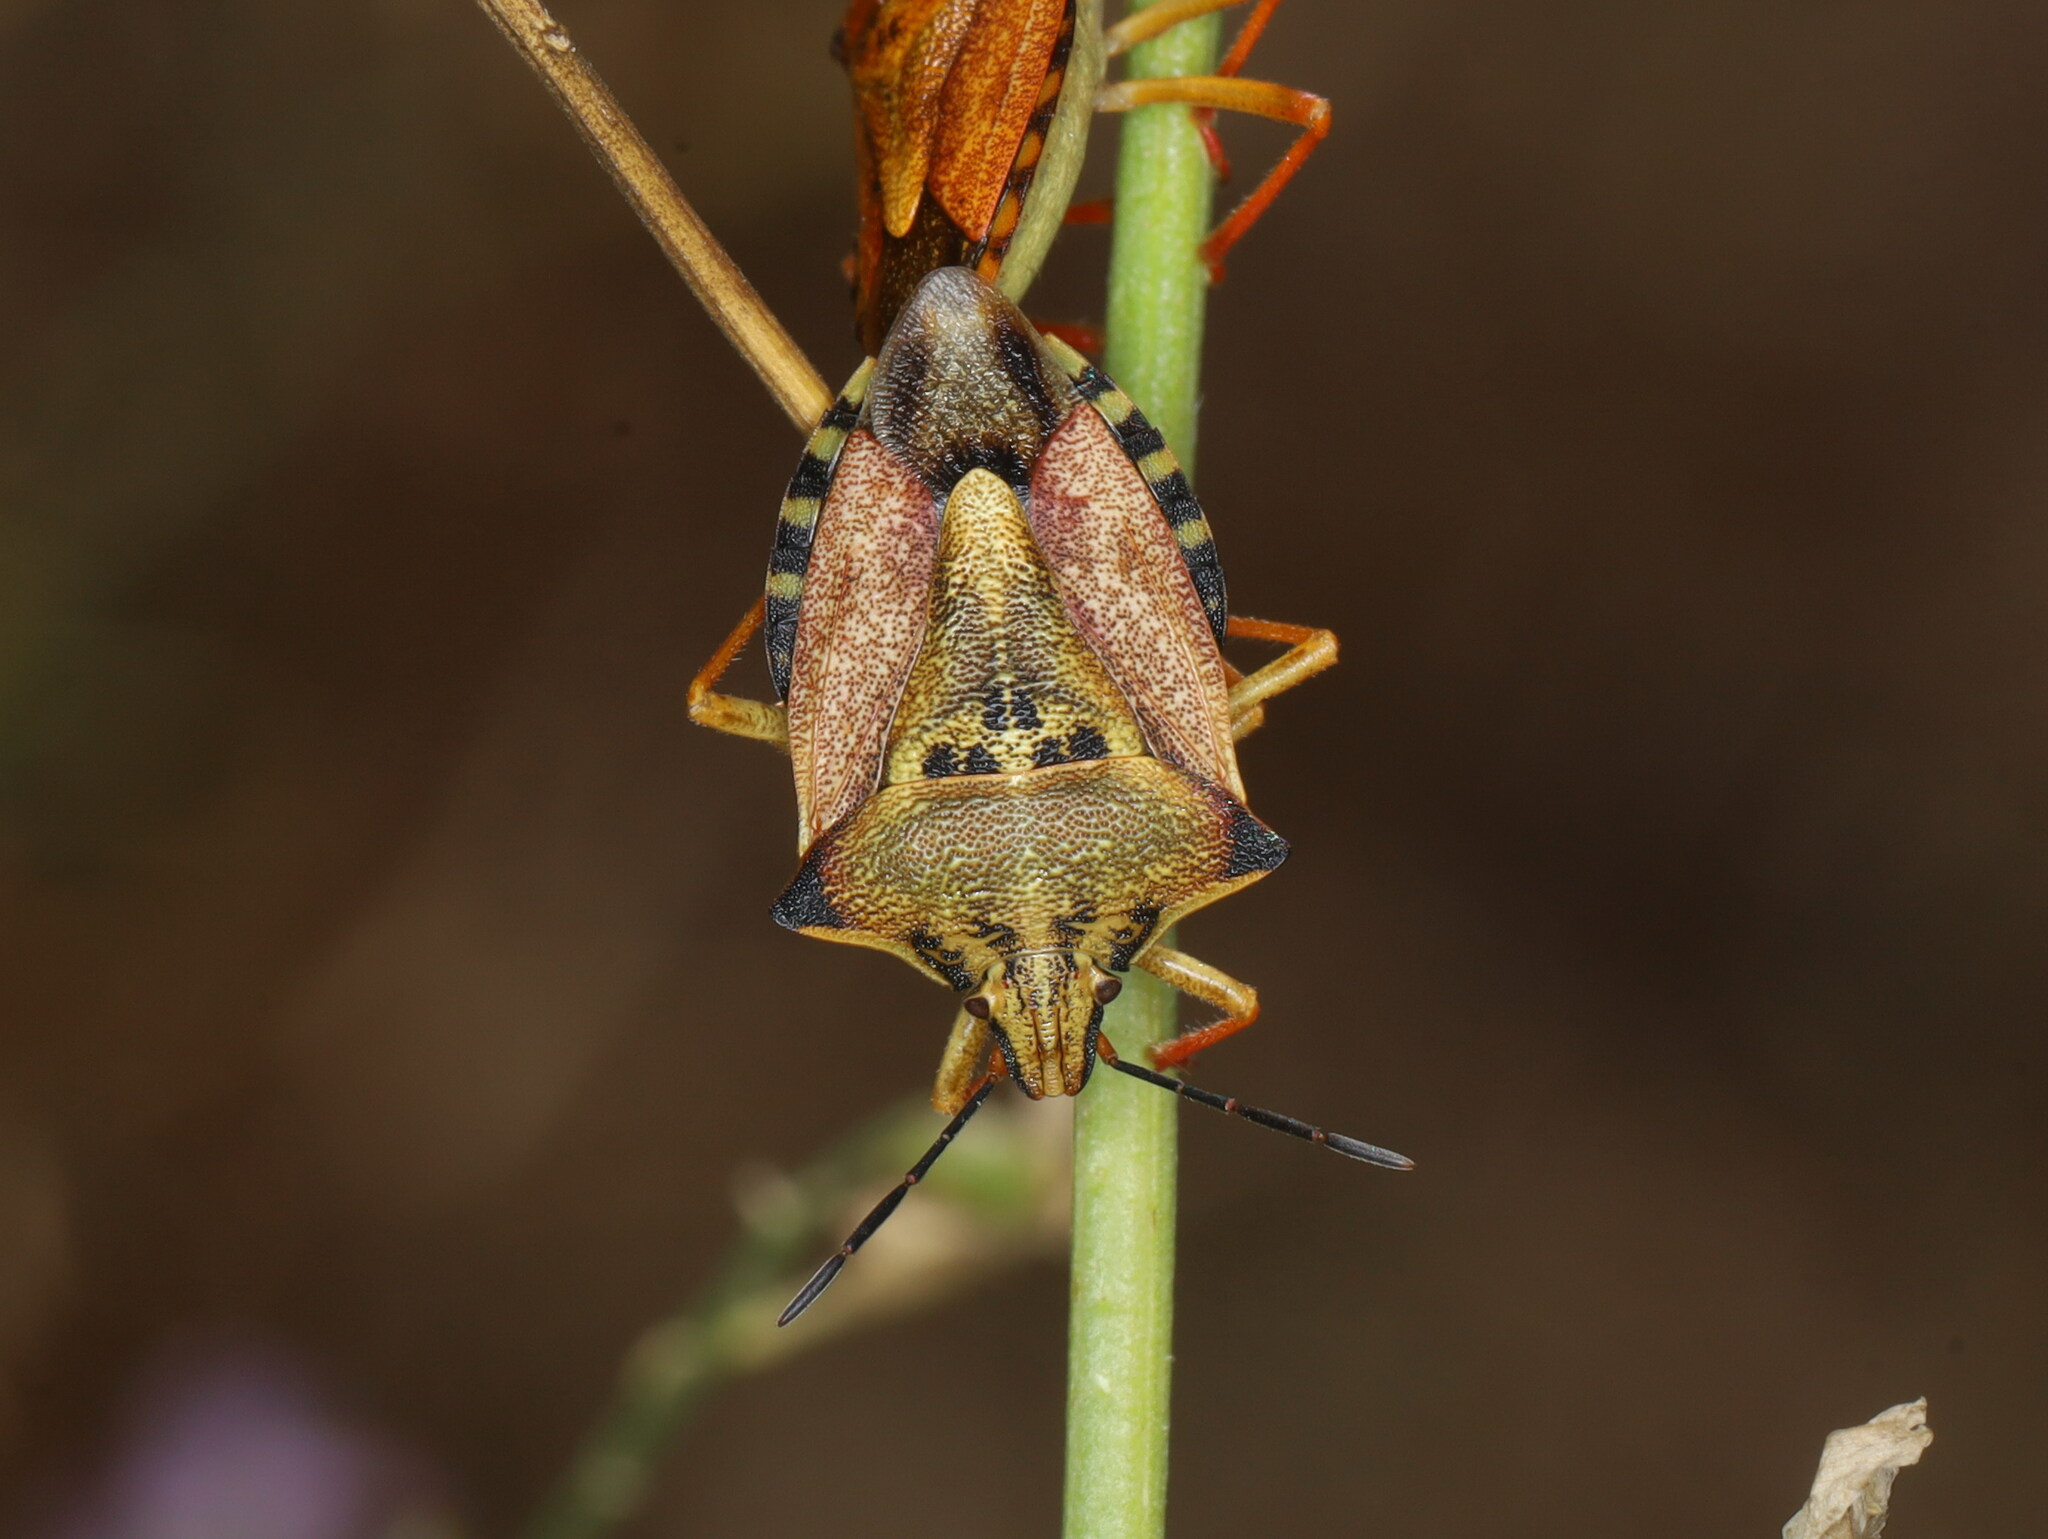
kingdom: Animalia
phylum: Arthropoda
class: Insecta
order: Hemiptera
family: Pentatomidae
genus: Carpocoris
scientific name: Carpocoris mediterraneus
